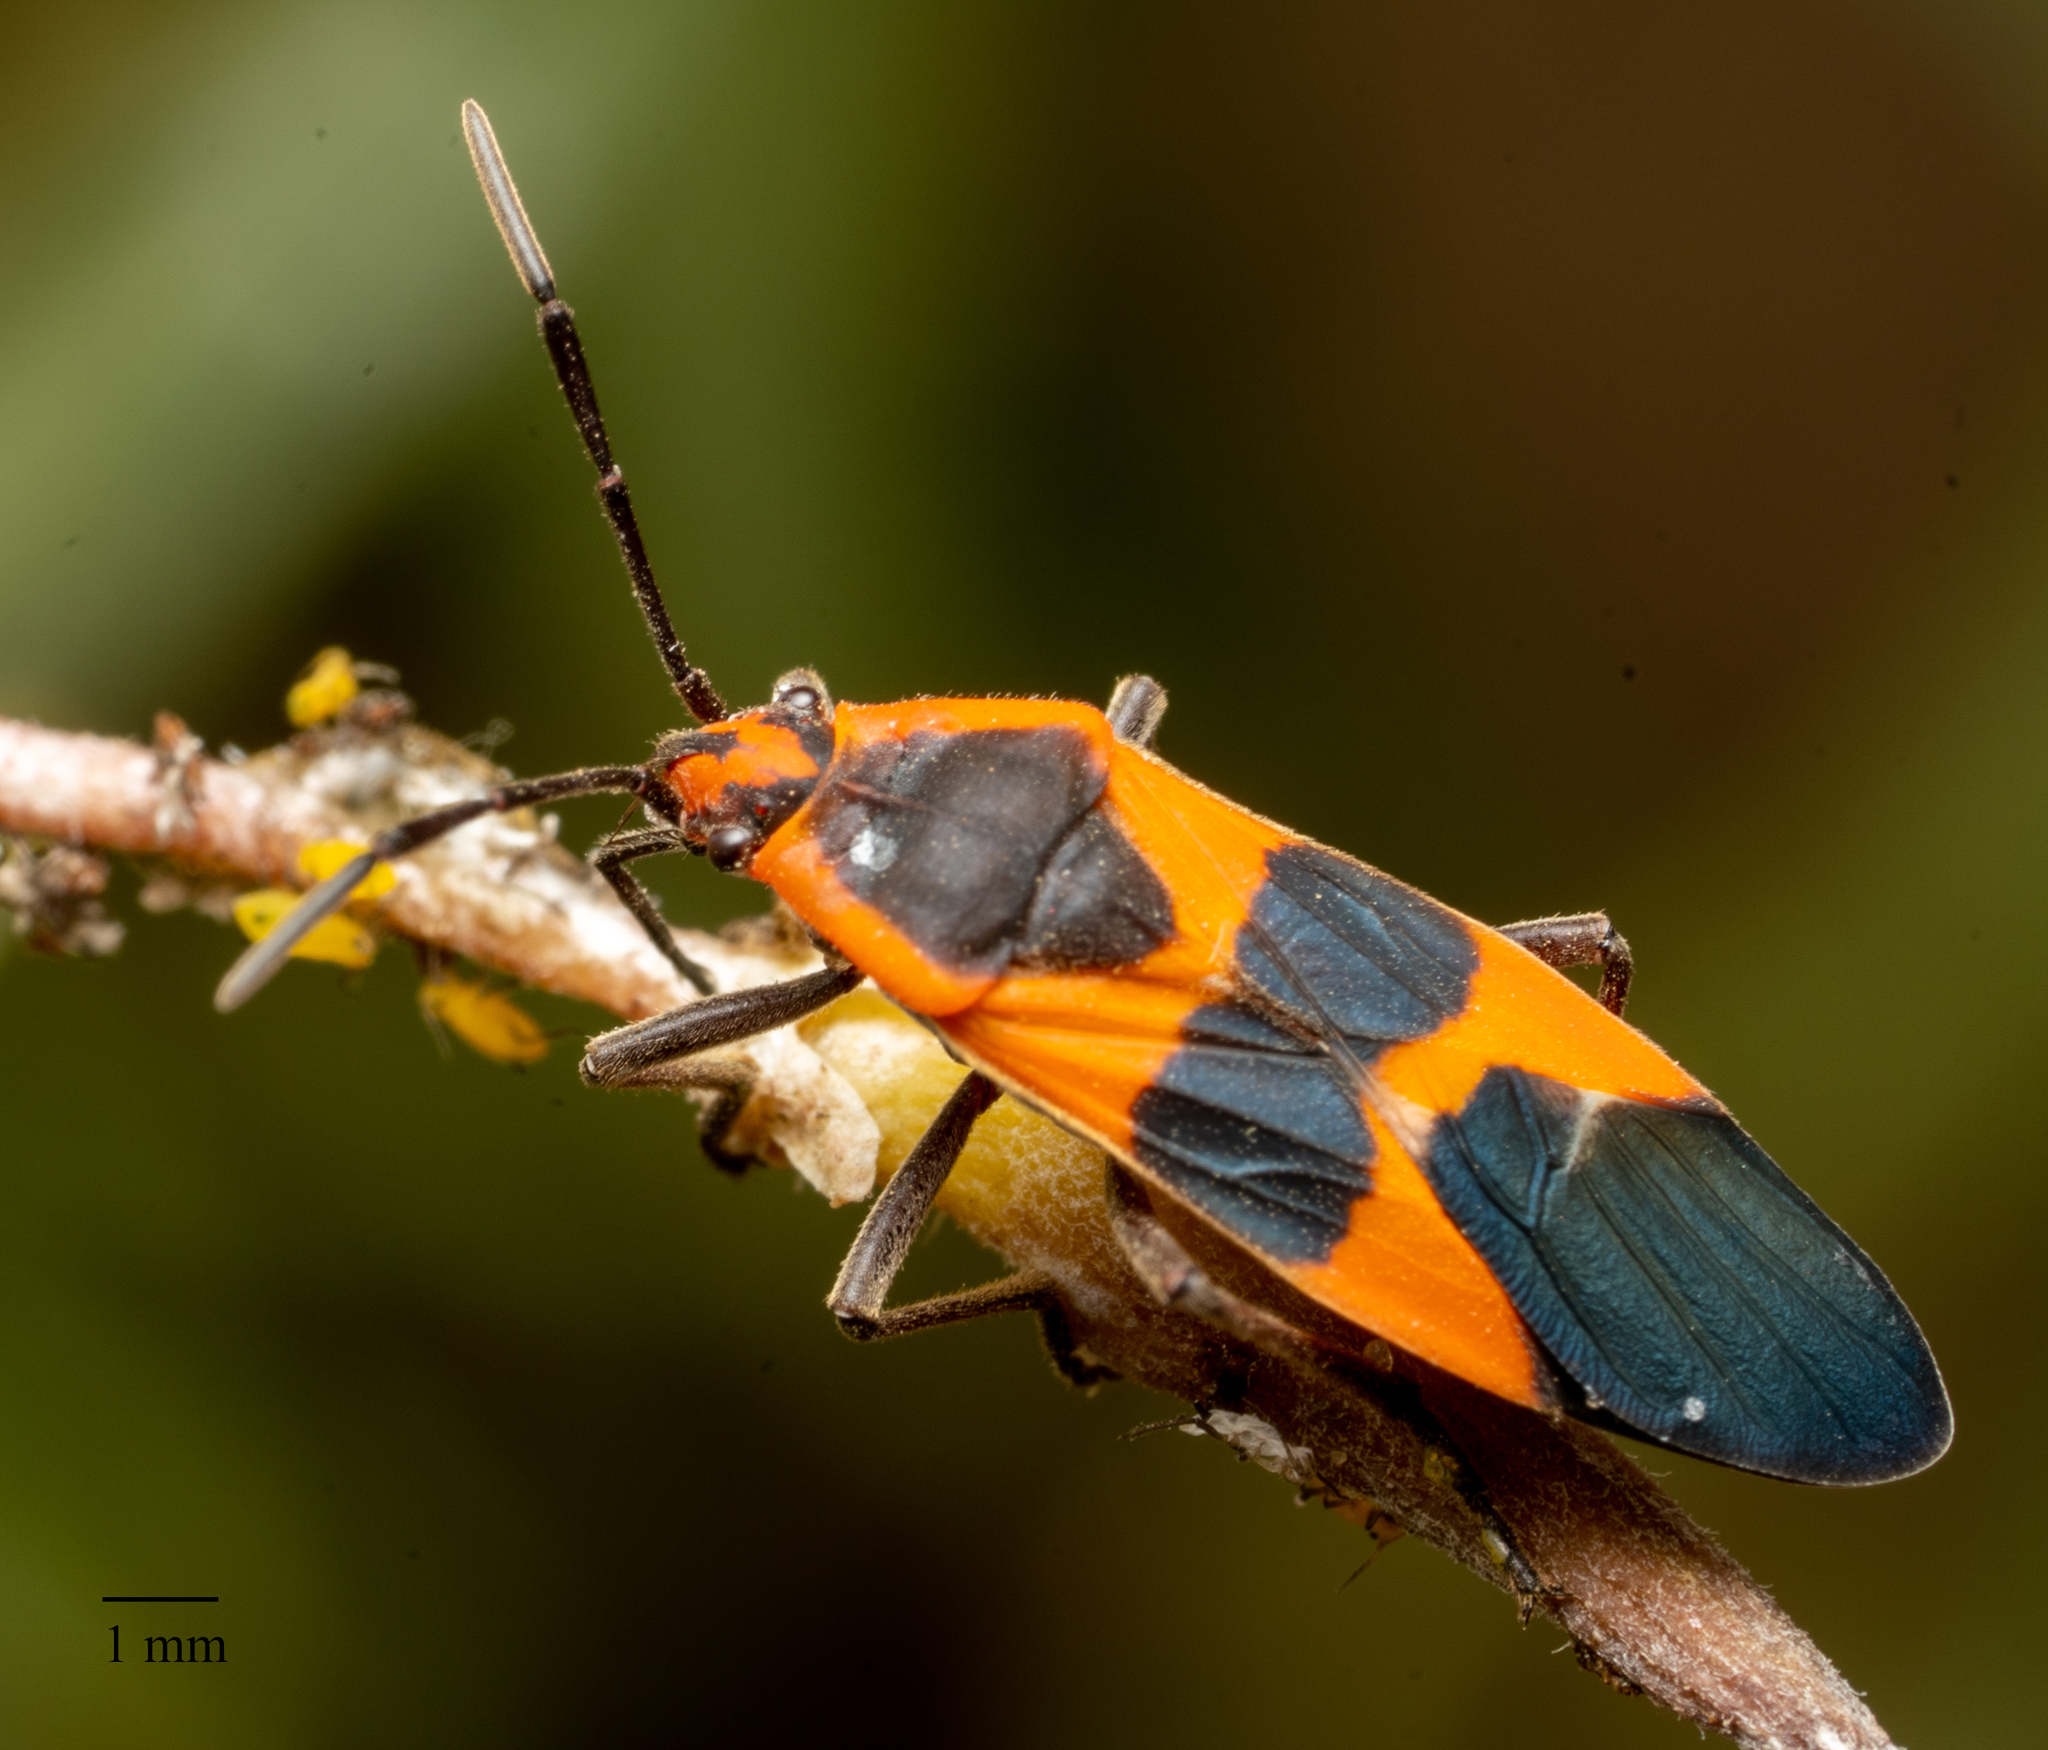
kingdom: Animalia
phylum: Arthropoda
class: Insecta
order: Hemiptera
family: Lygaeidae
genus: Oncopeltus
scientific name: Oncopeltus fasciatus
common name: Large milkweed bug
